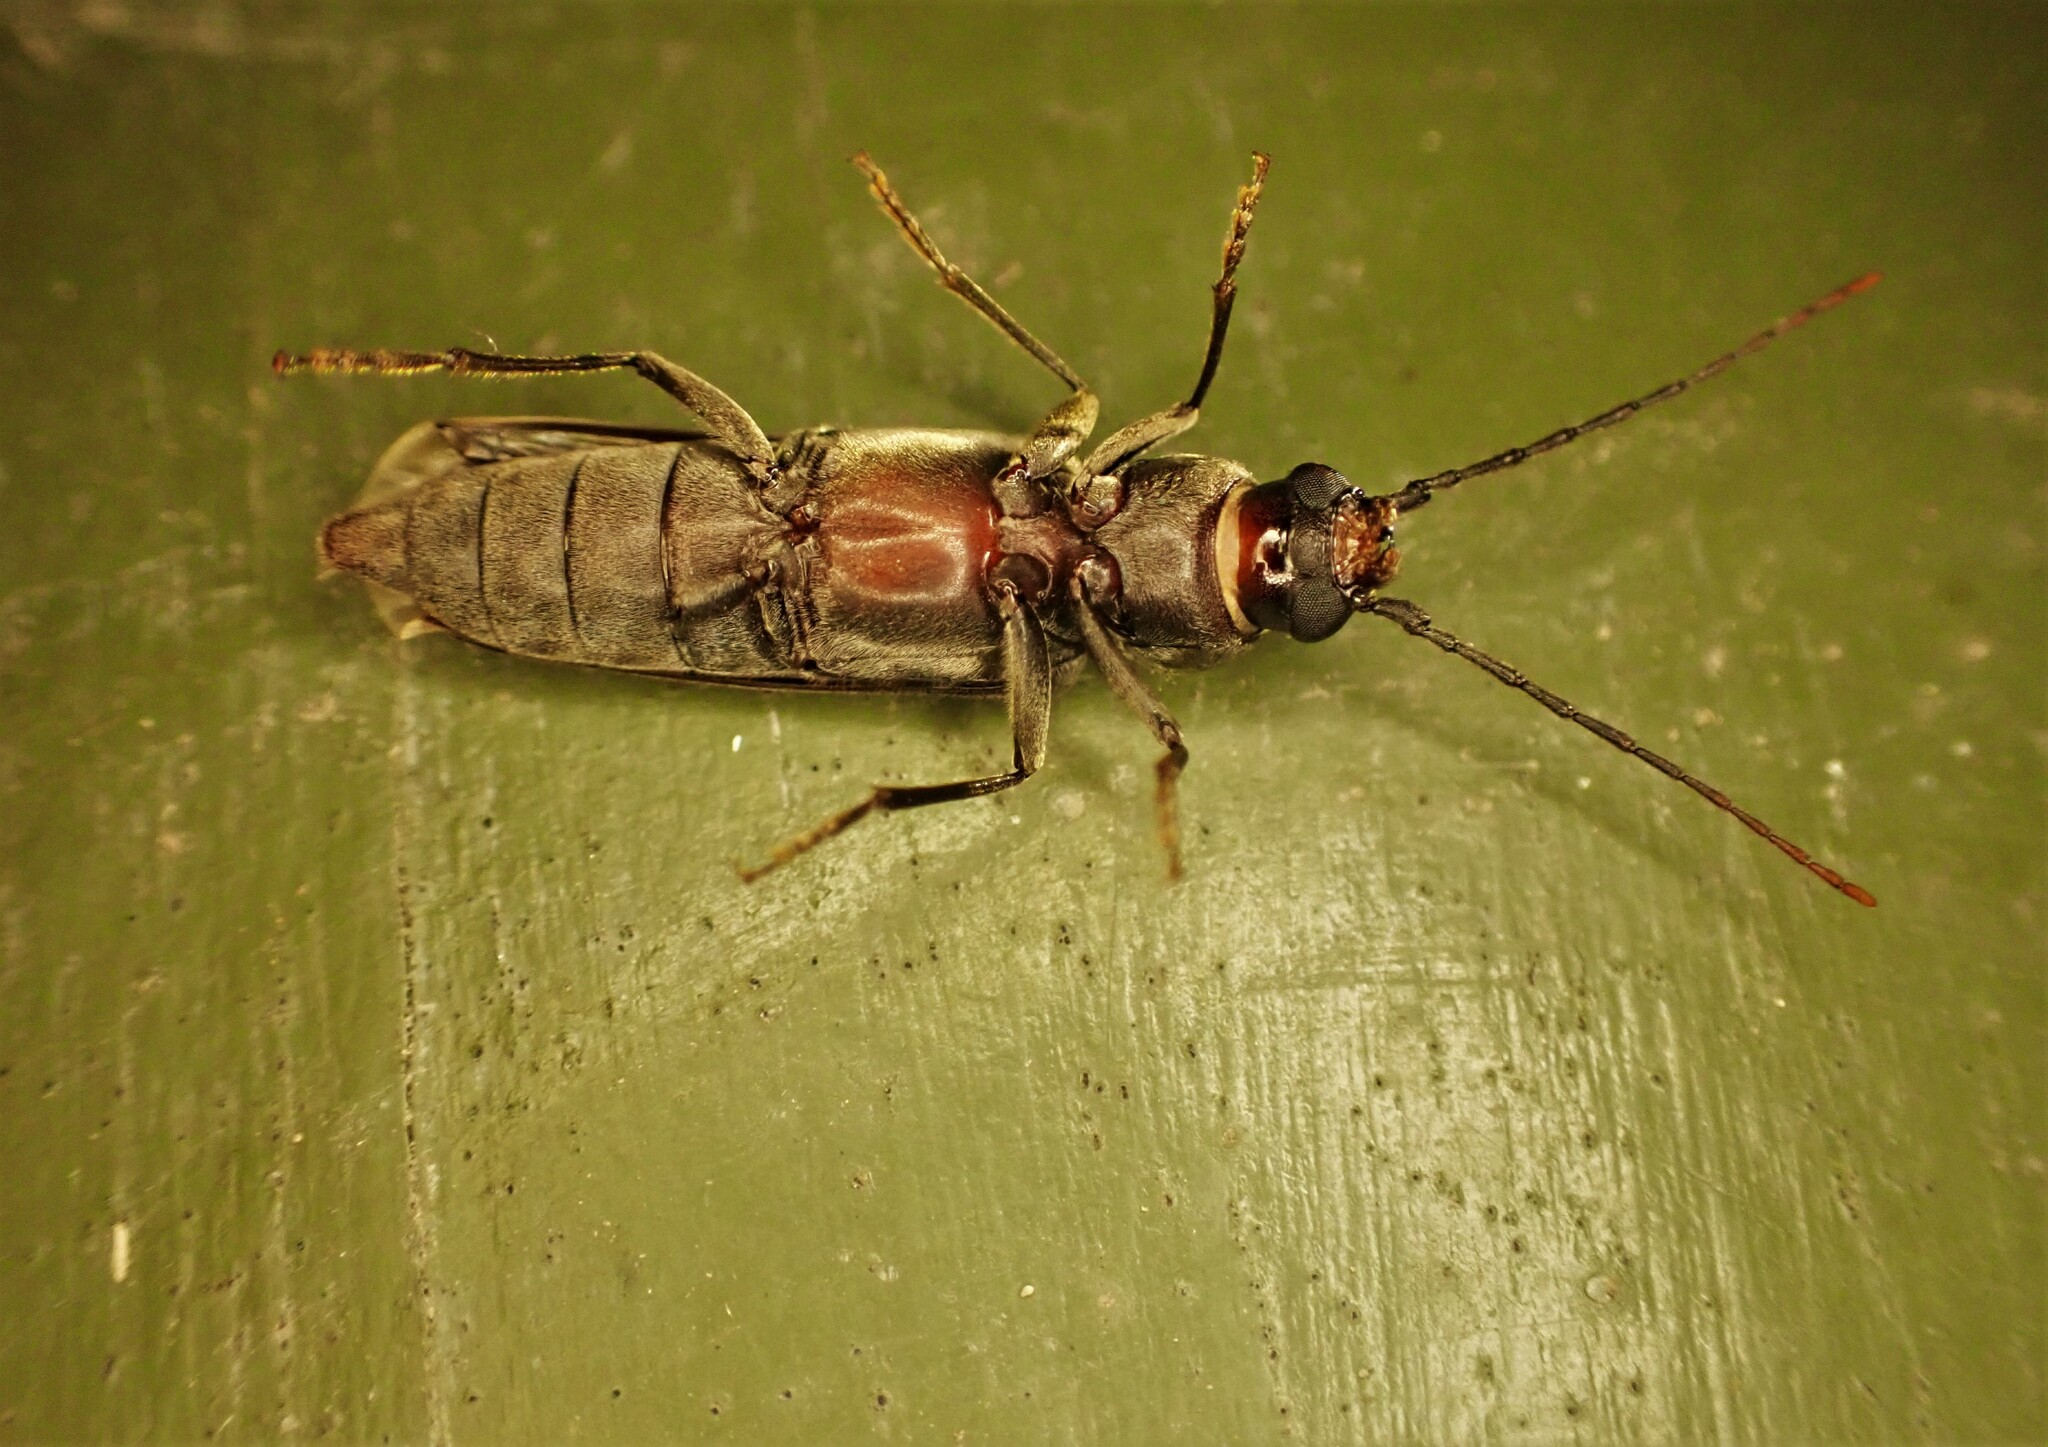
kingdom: Animalia
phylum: Arthropoda
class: Insecta
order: Coleoptera
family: Cerambycidae
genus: Arhopalus
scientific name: Arhopalus ferus
